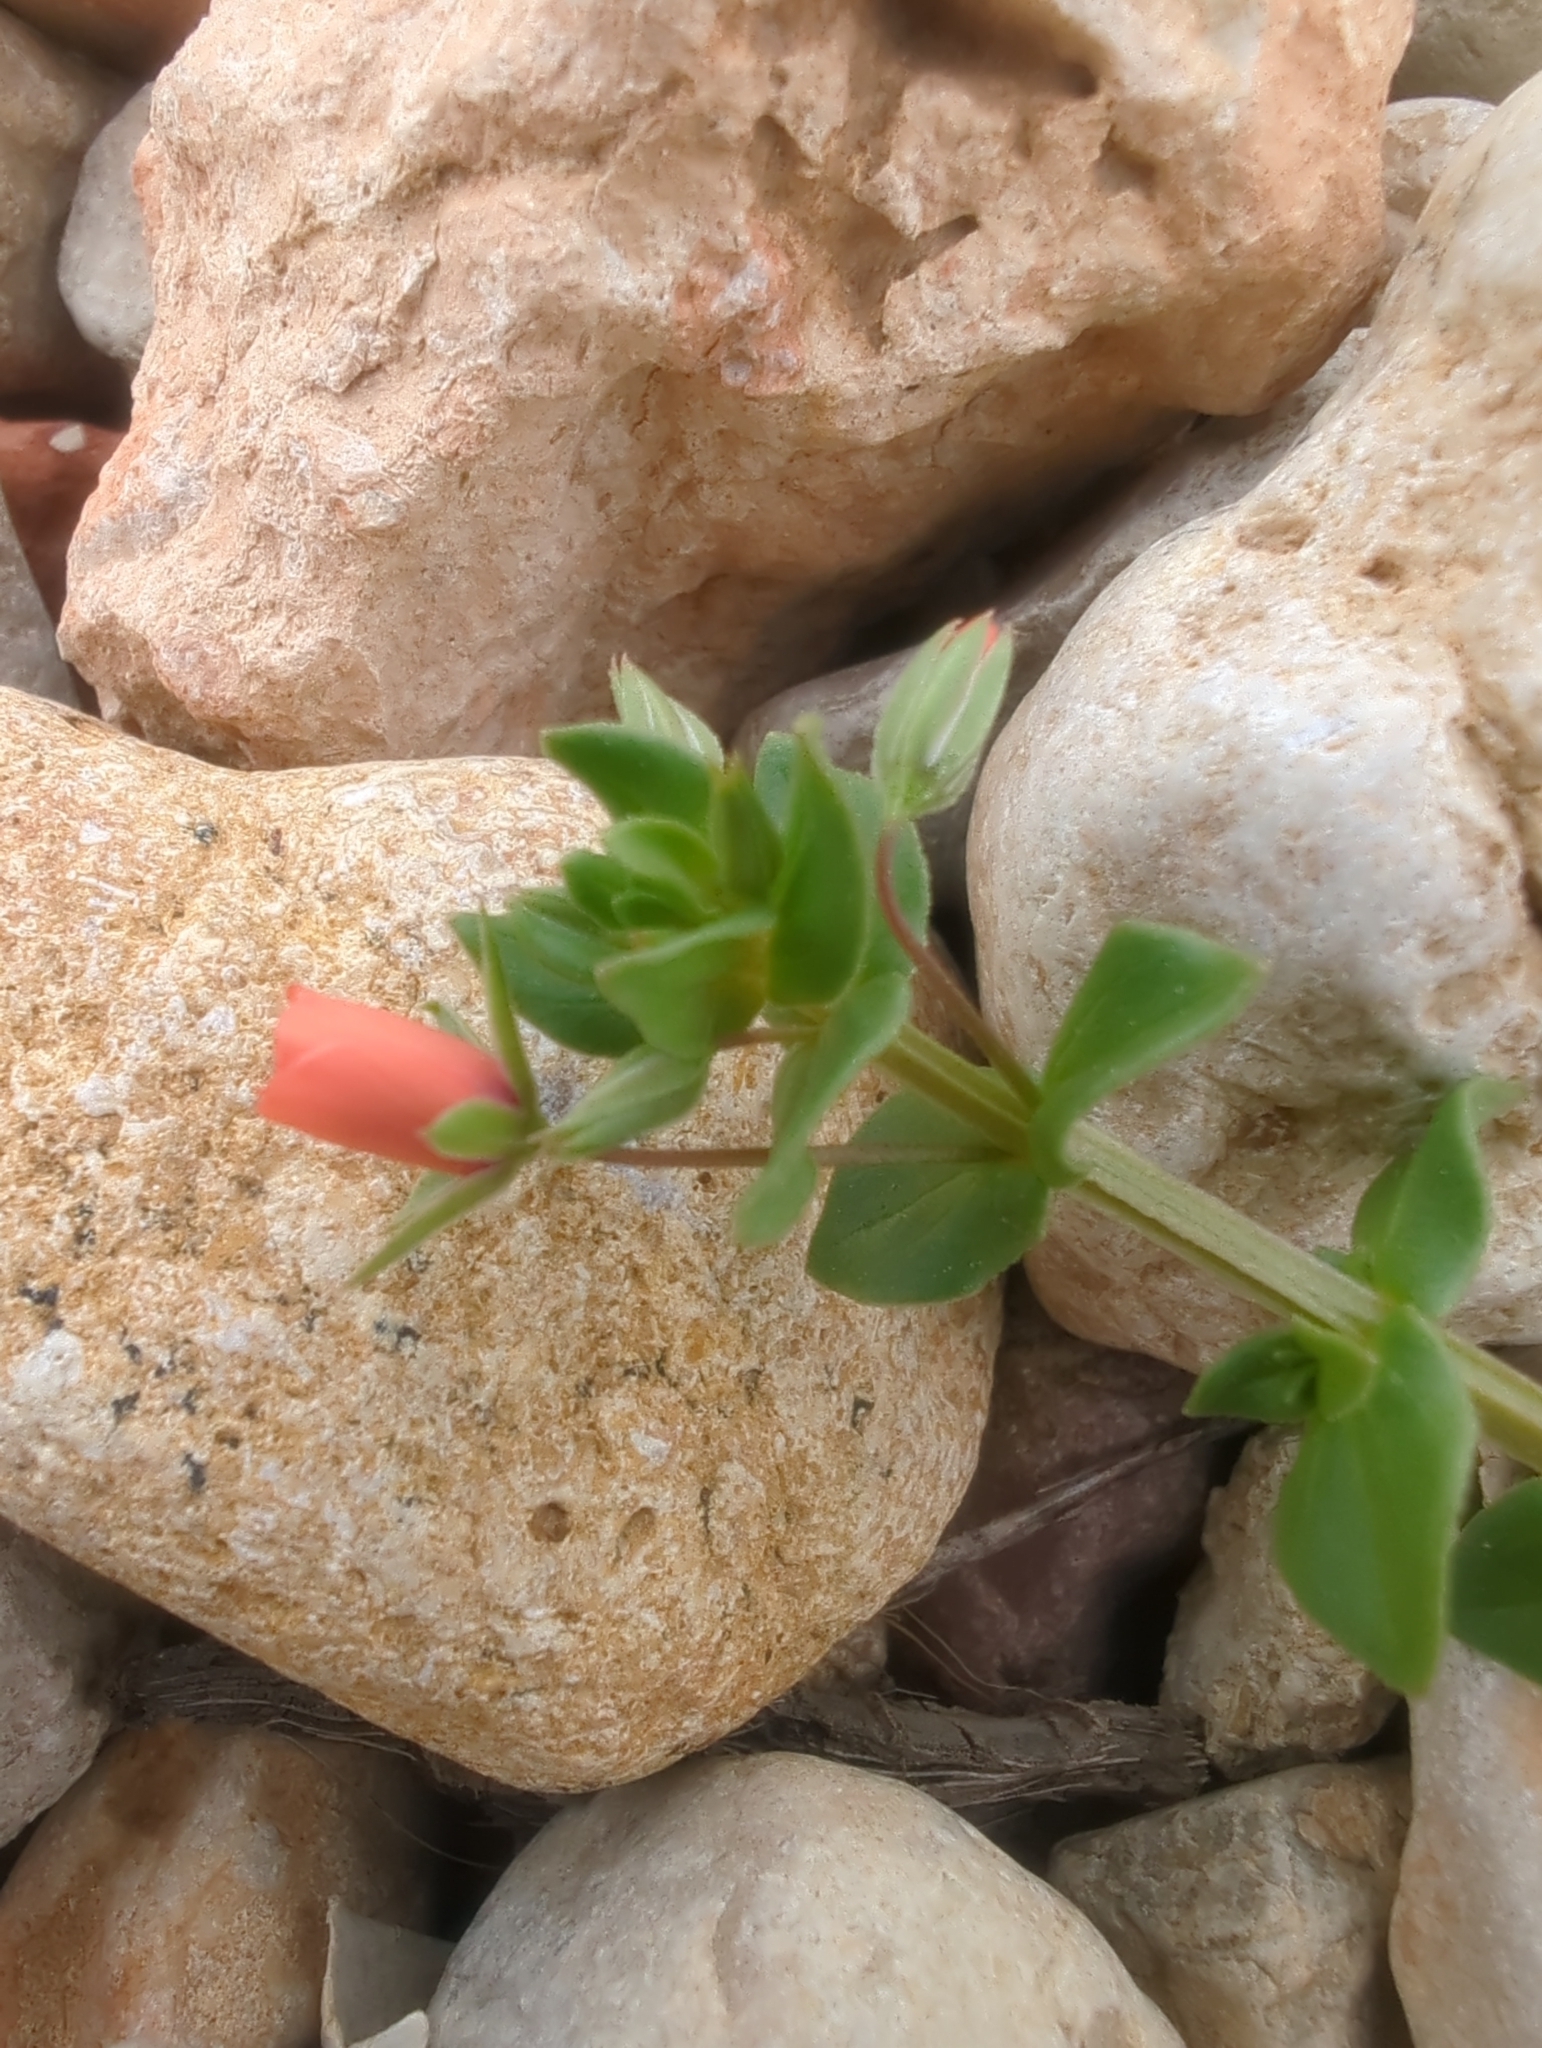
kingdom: Plantae
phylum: Tracheophyta
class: Magnoliopsida
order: Ericales
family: Primulaceae
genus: Lysimachia
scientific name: Lysimachia arvensis
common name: Scarlet pimpernel
